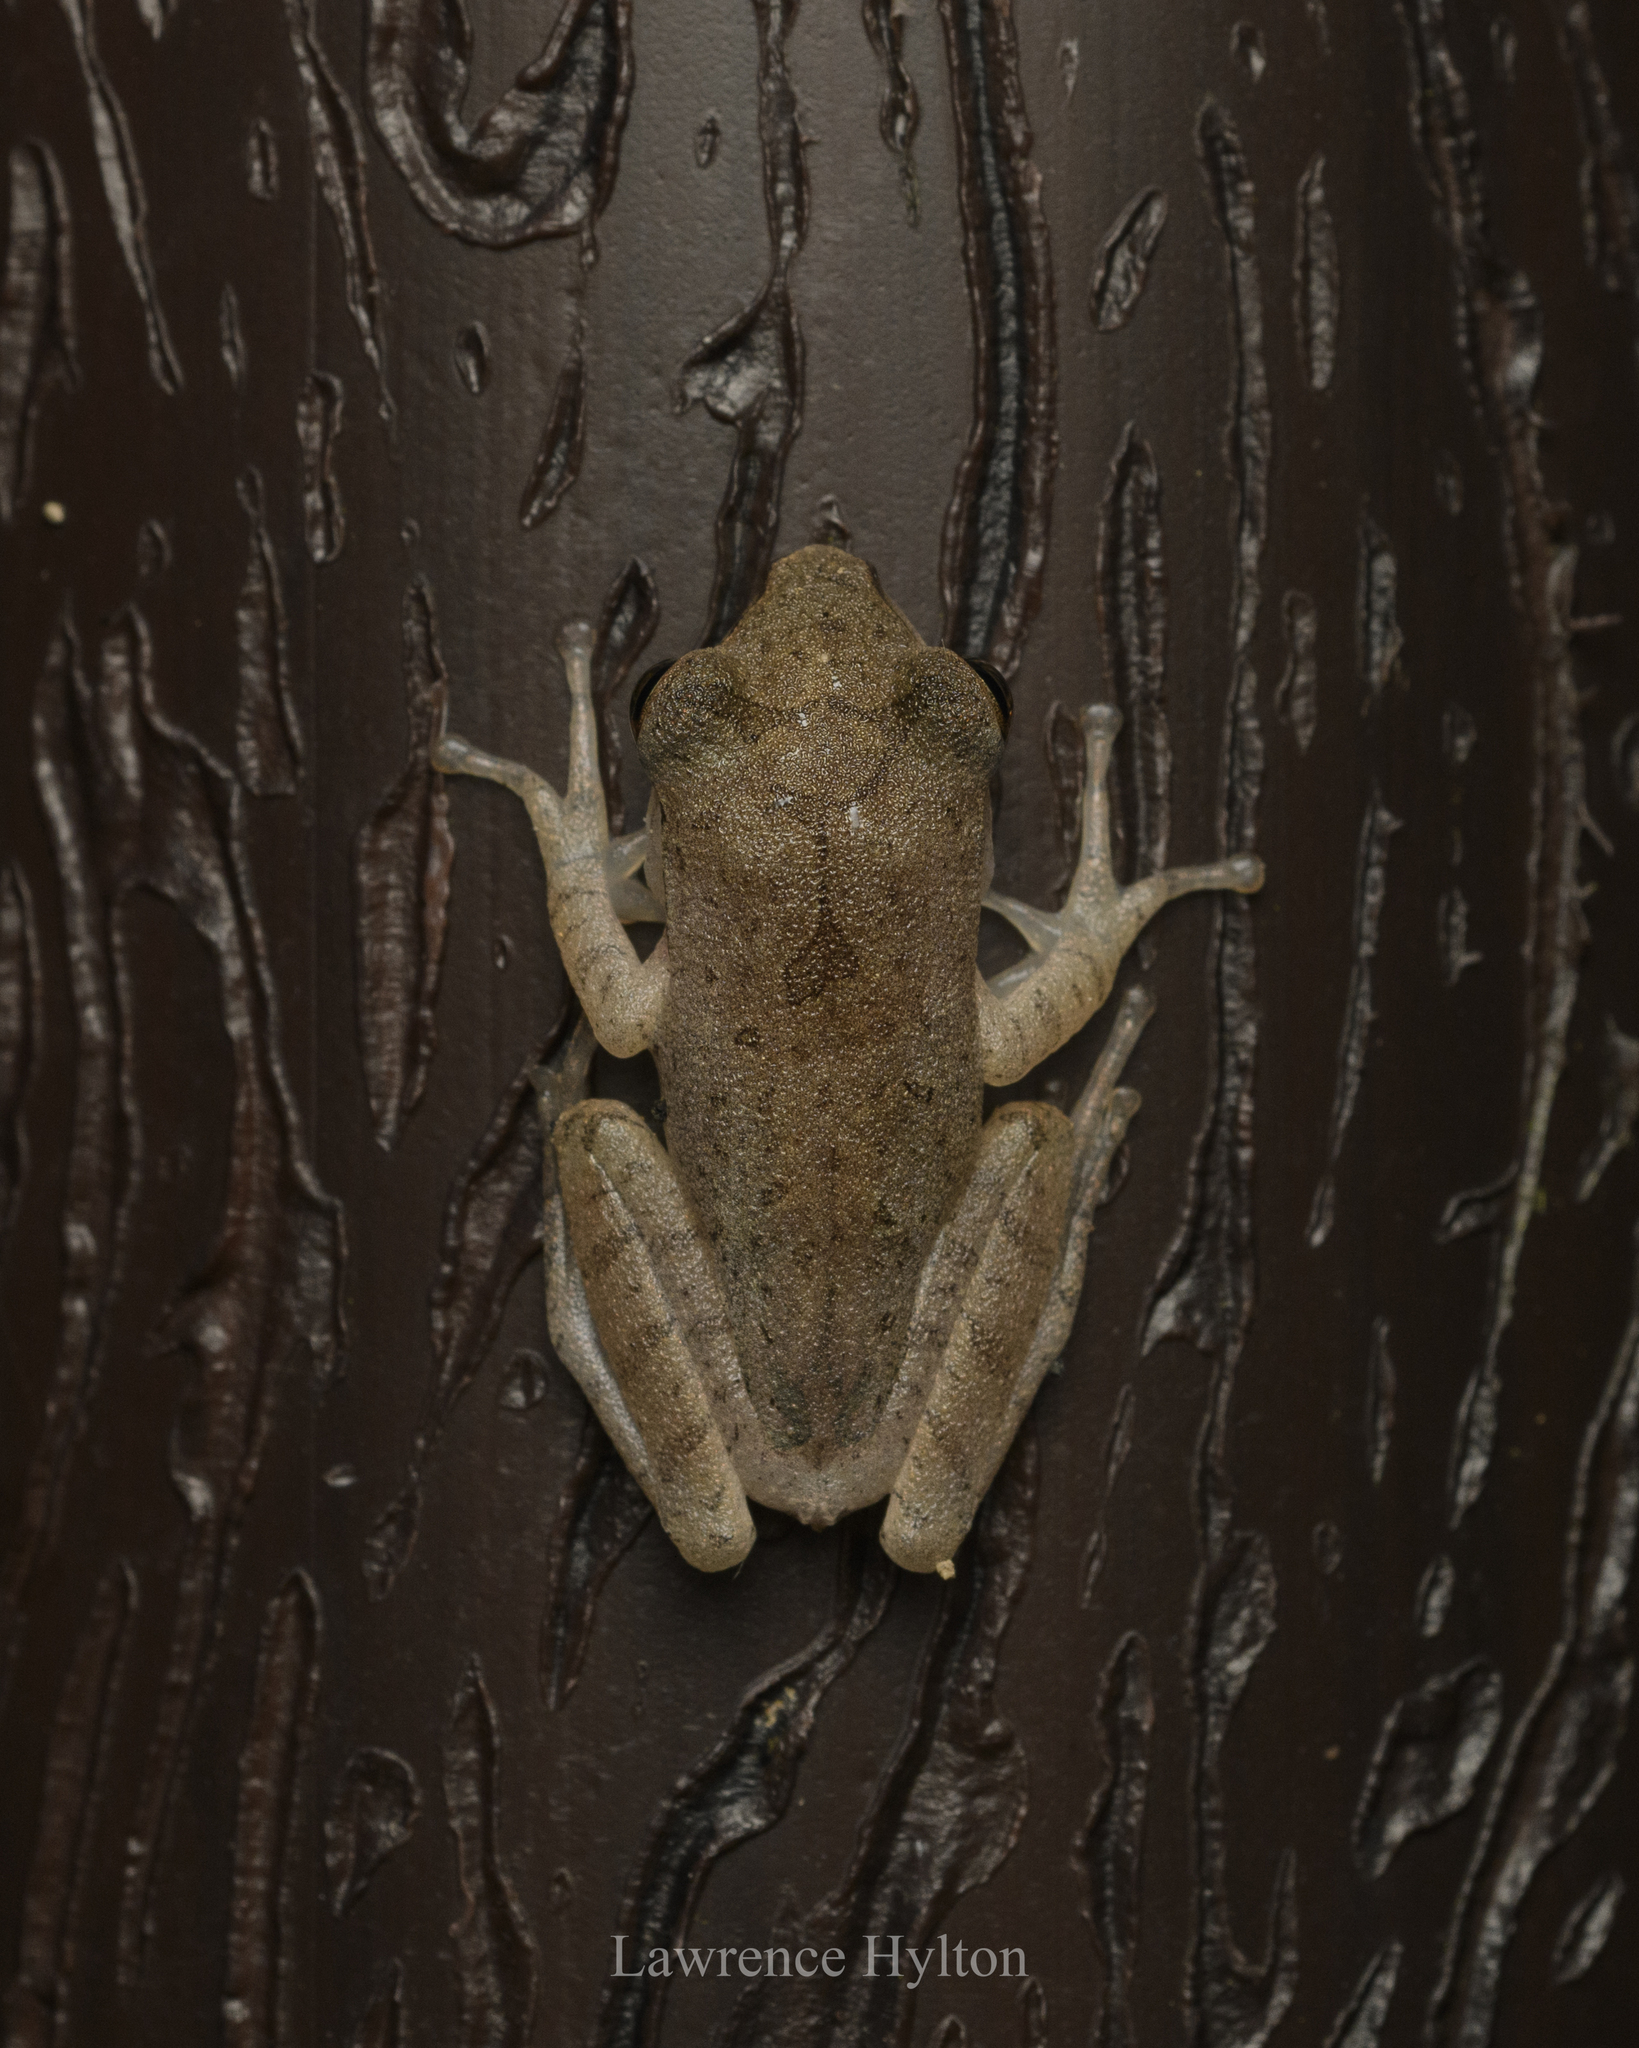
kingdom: Animalia
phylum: Chordata
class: Amphibia
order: Anura
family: Rhacophoridae
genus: Polypedates
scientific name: Polypedates megacephalus
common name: Hong kong whipping frog
